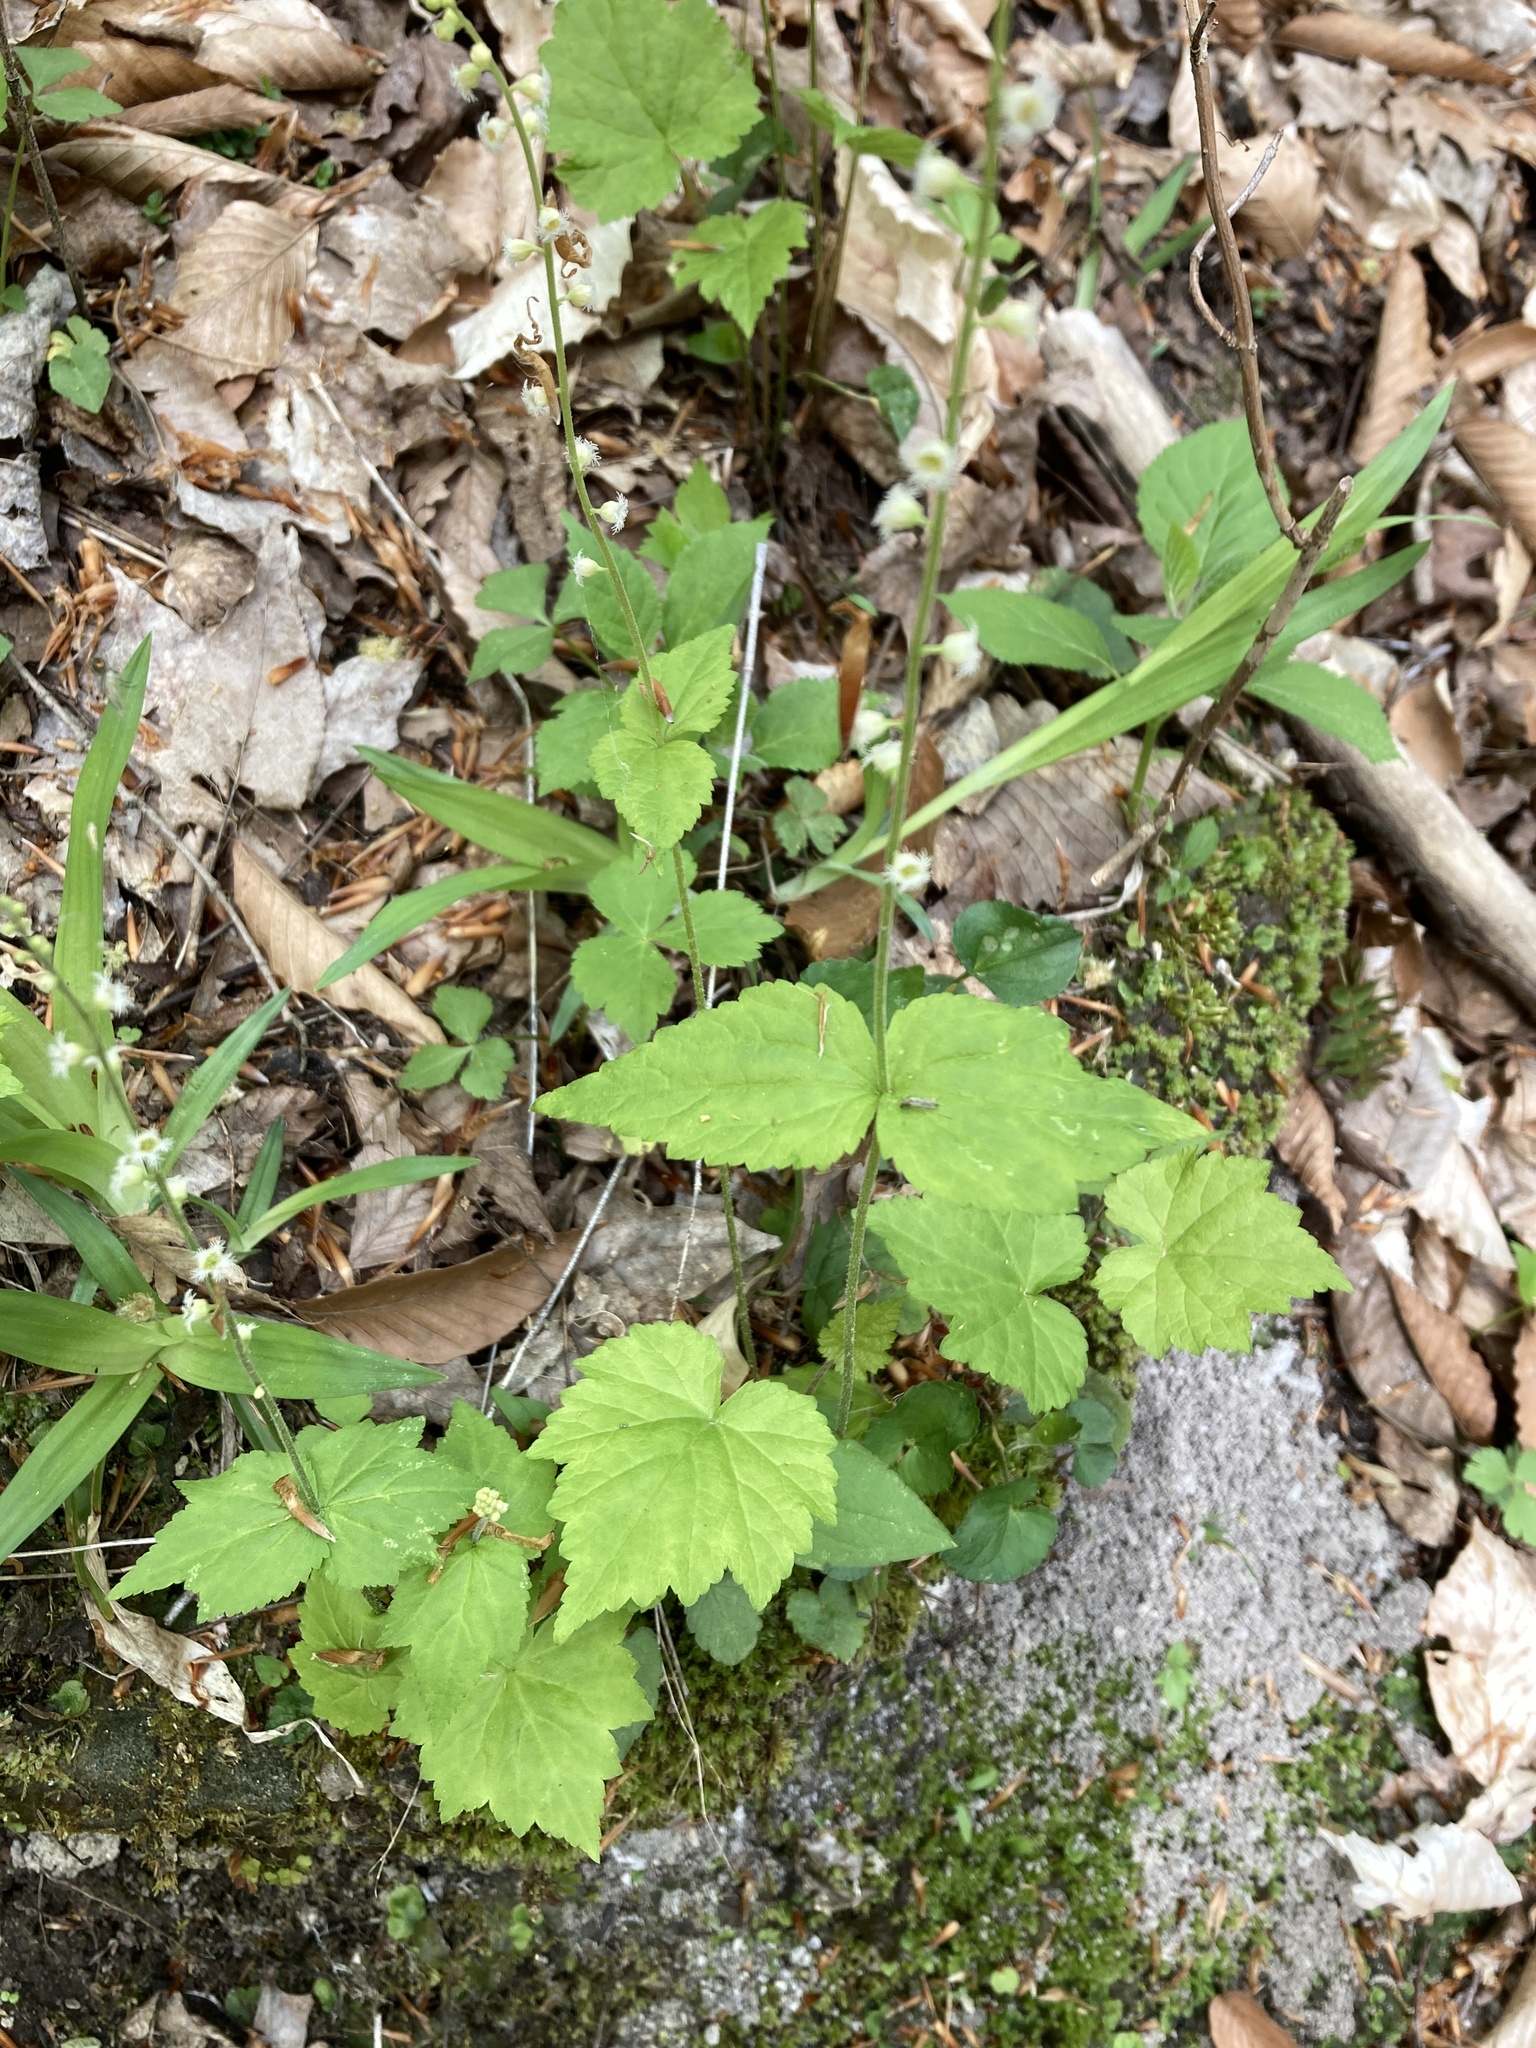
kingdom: Plantae
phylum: Tracheophyta
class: Magnoliopsida
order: Saxifragales
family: Saxifragaceae
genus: Mitella
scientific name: Mitella diphylla
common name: Coolwort
